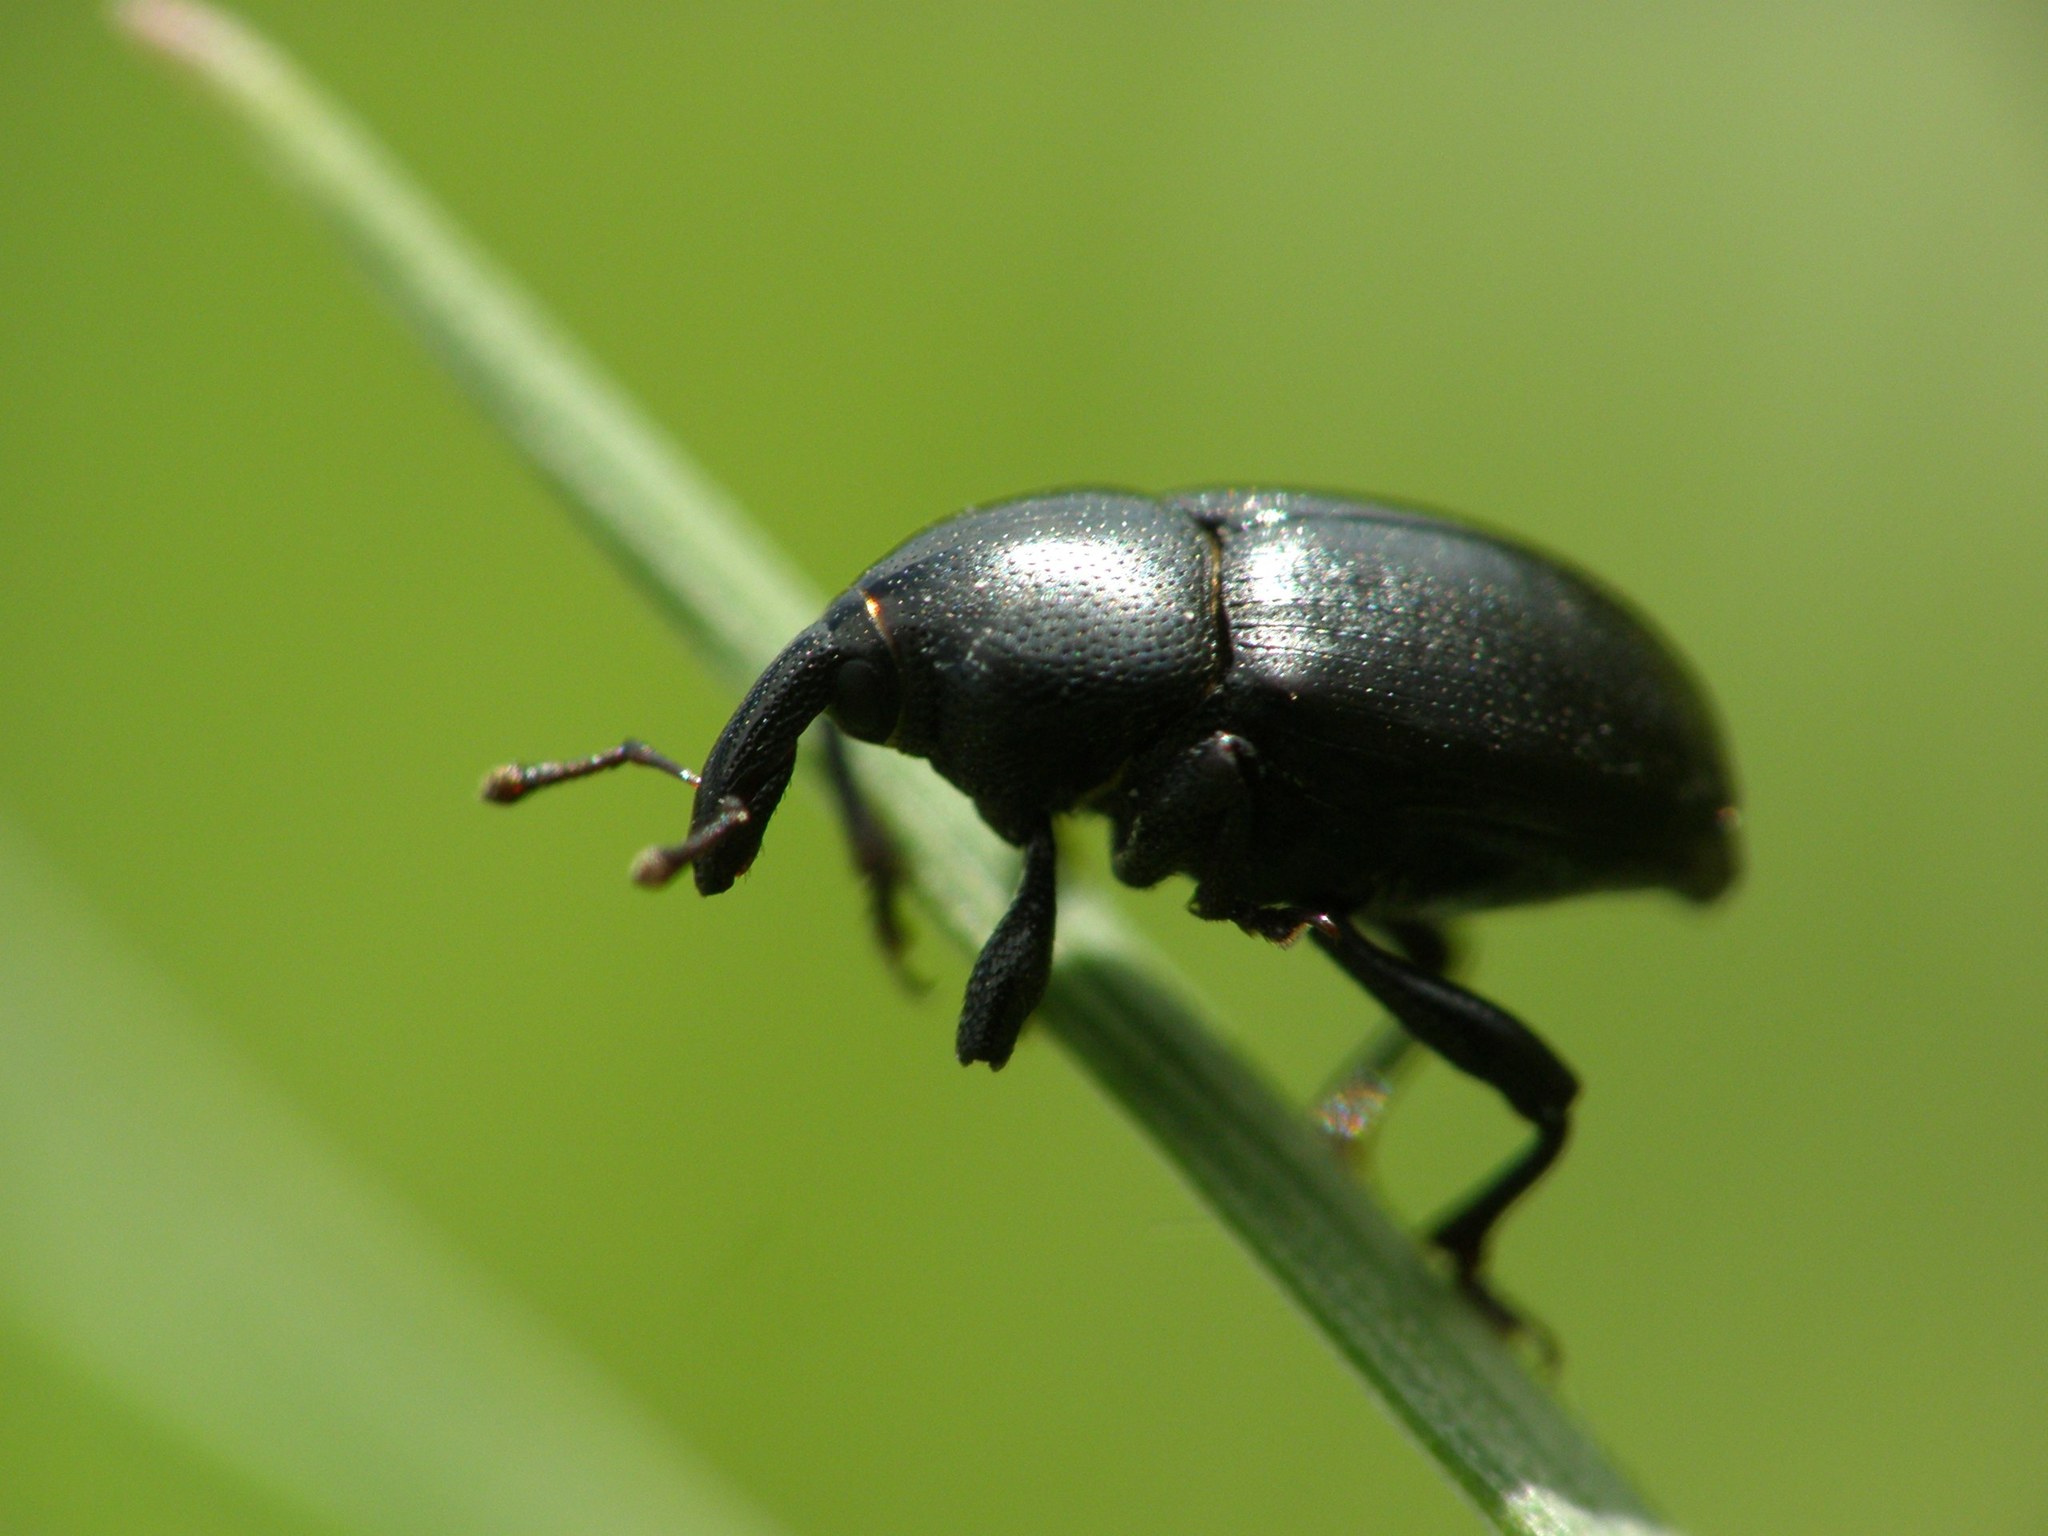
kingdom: Animalia
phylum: Arthropoda
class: Insecta
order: Coleoptera
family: Curculionidae
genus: Malvaevora
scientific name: Malvaevora timida
